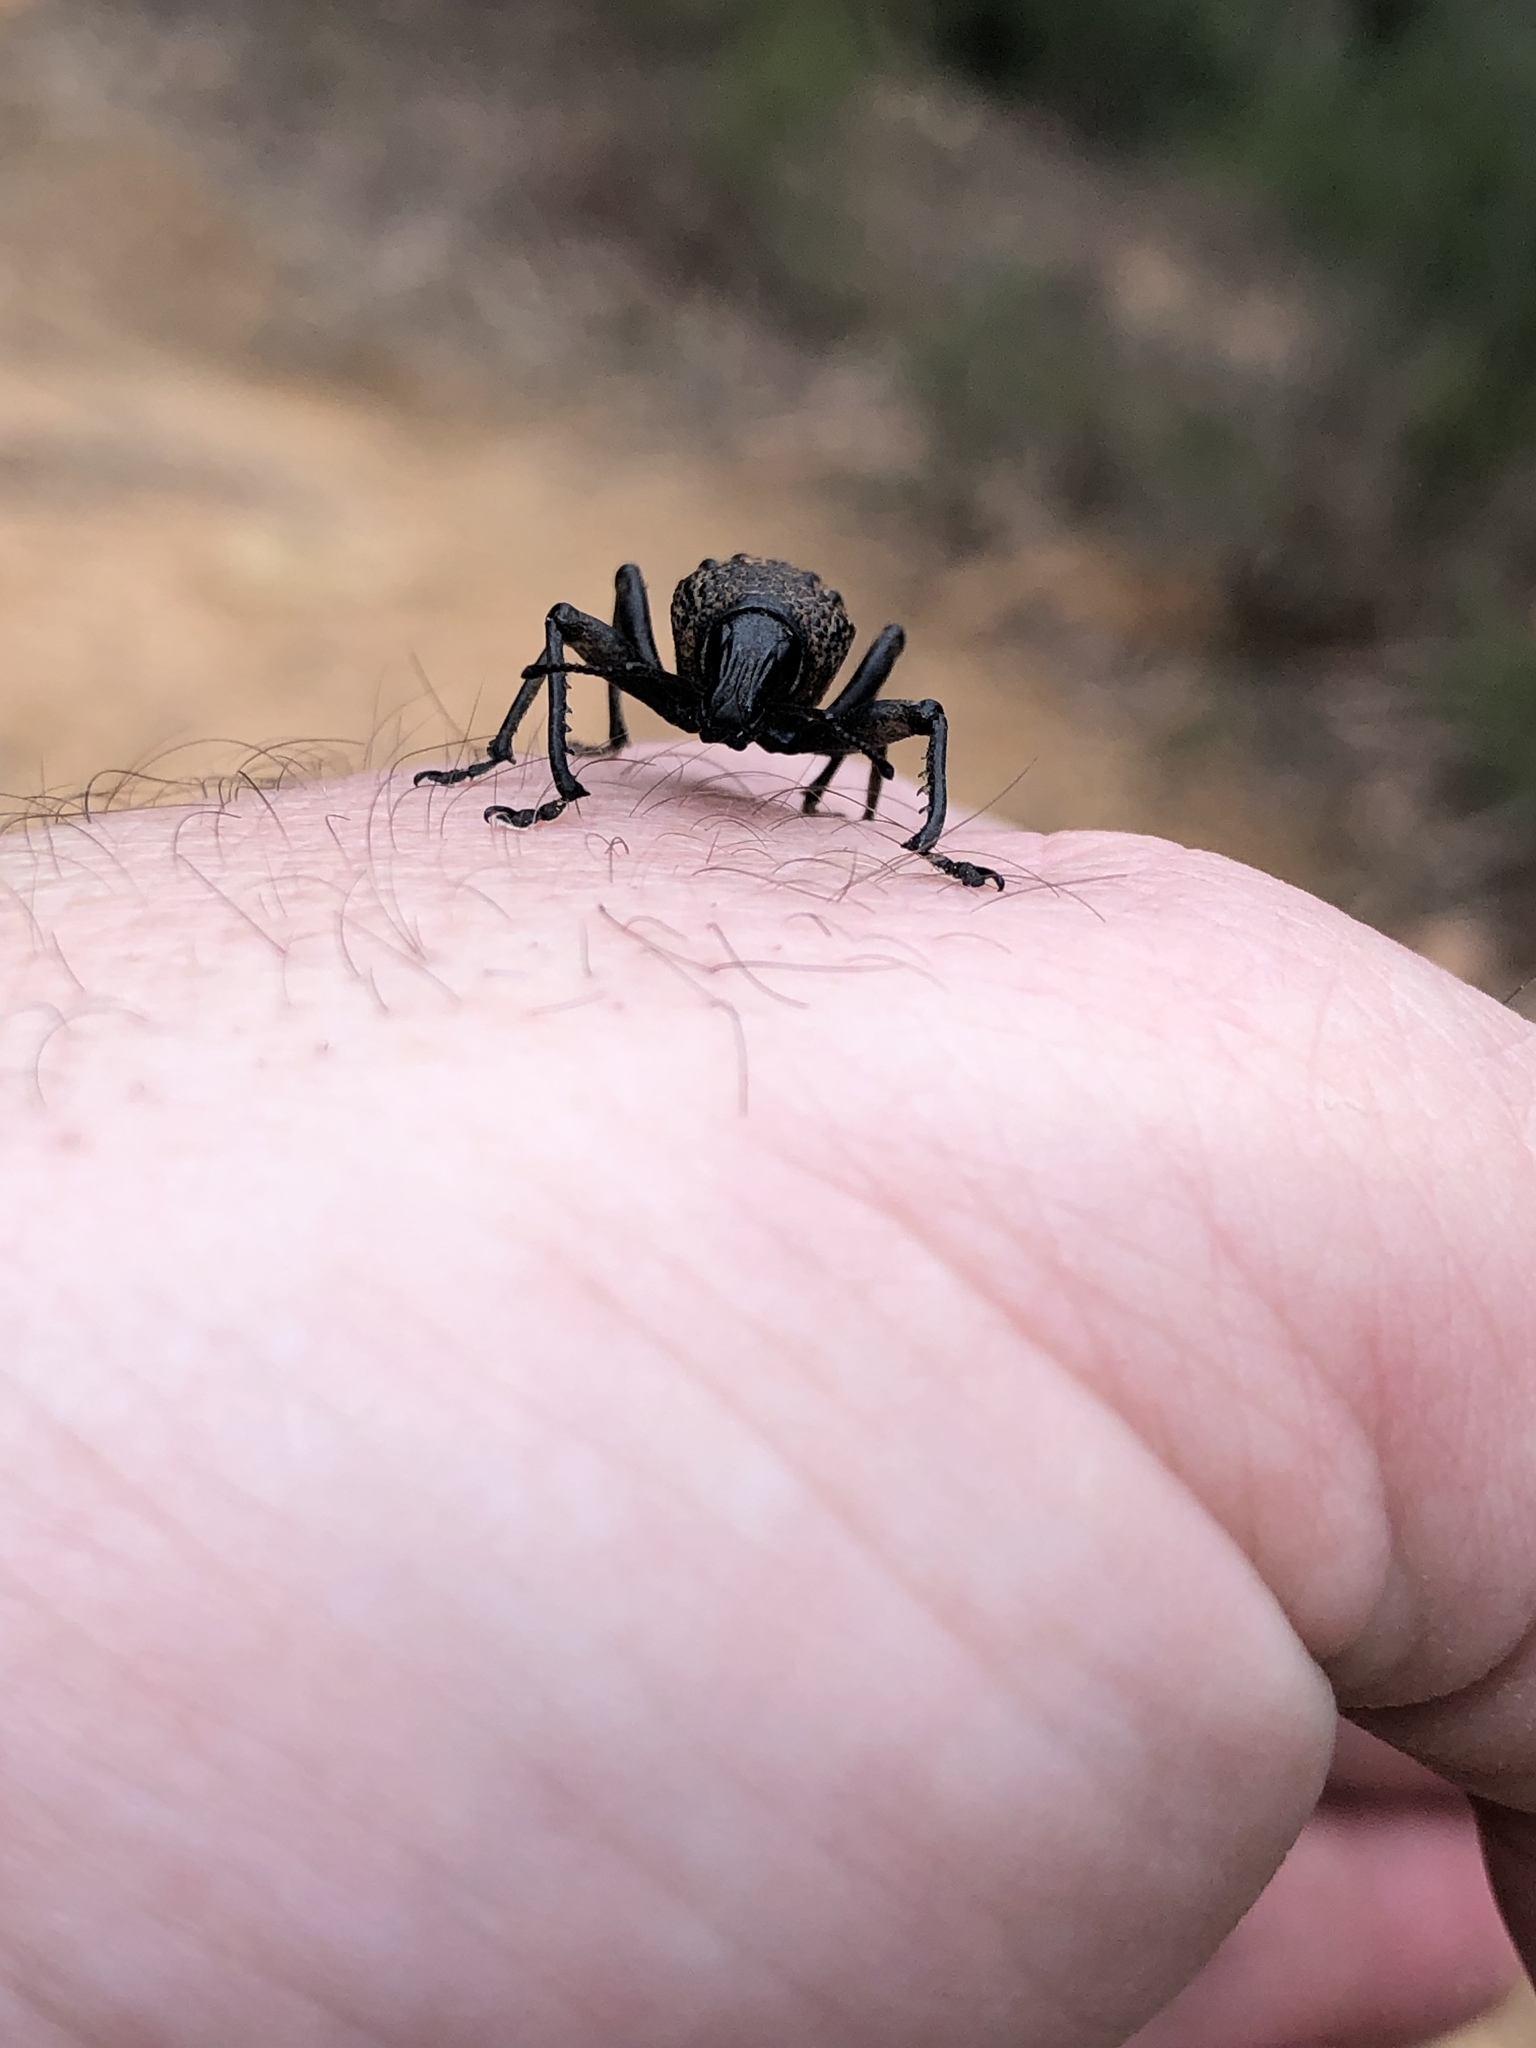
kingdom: Animalia
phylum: Arthropoda
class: Insecta
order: Coleoptera
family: Curculionidae
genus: Psapharus
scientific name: Psapharus infaustus
